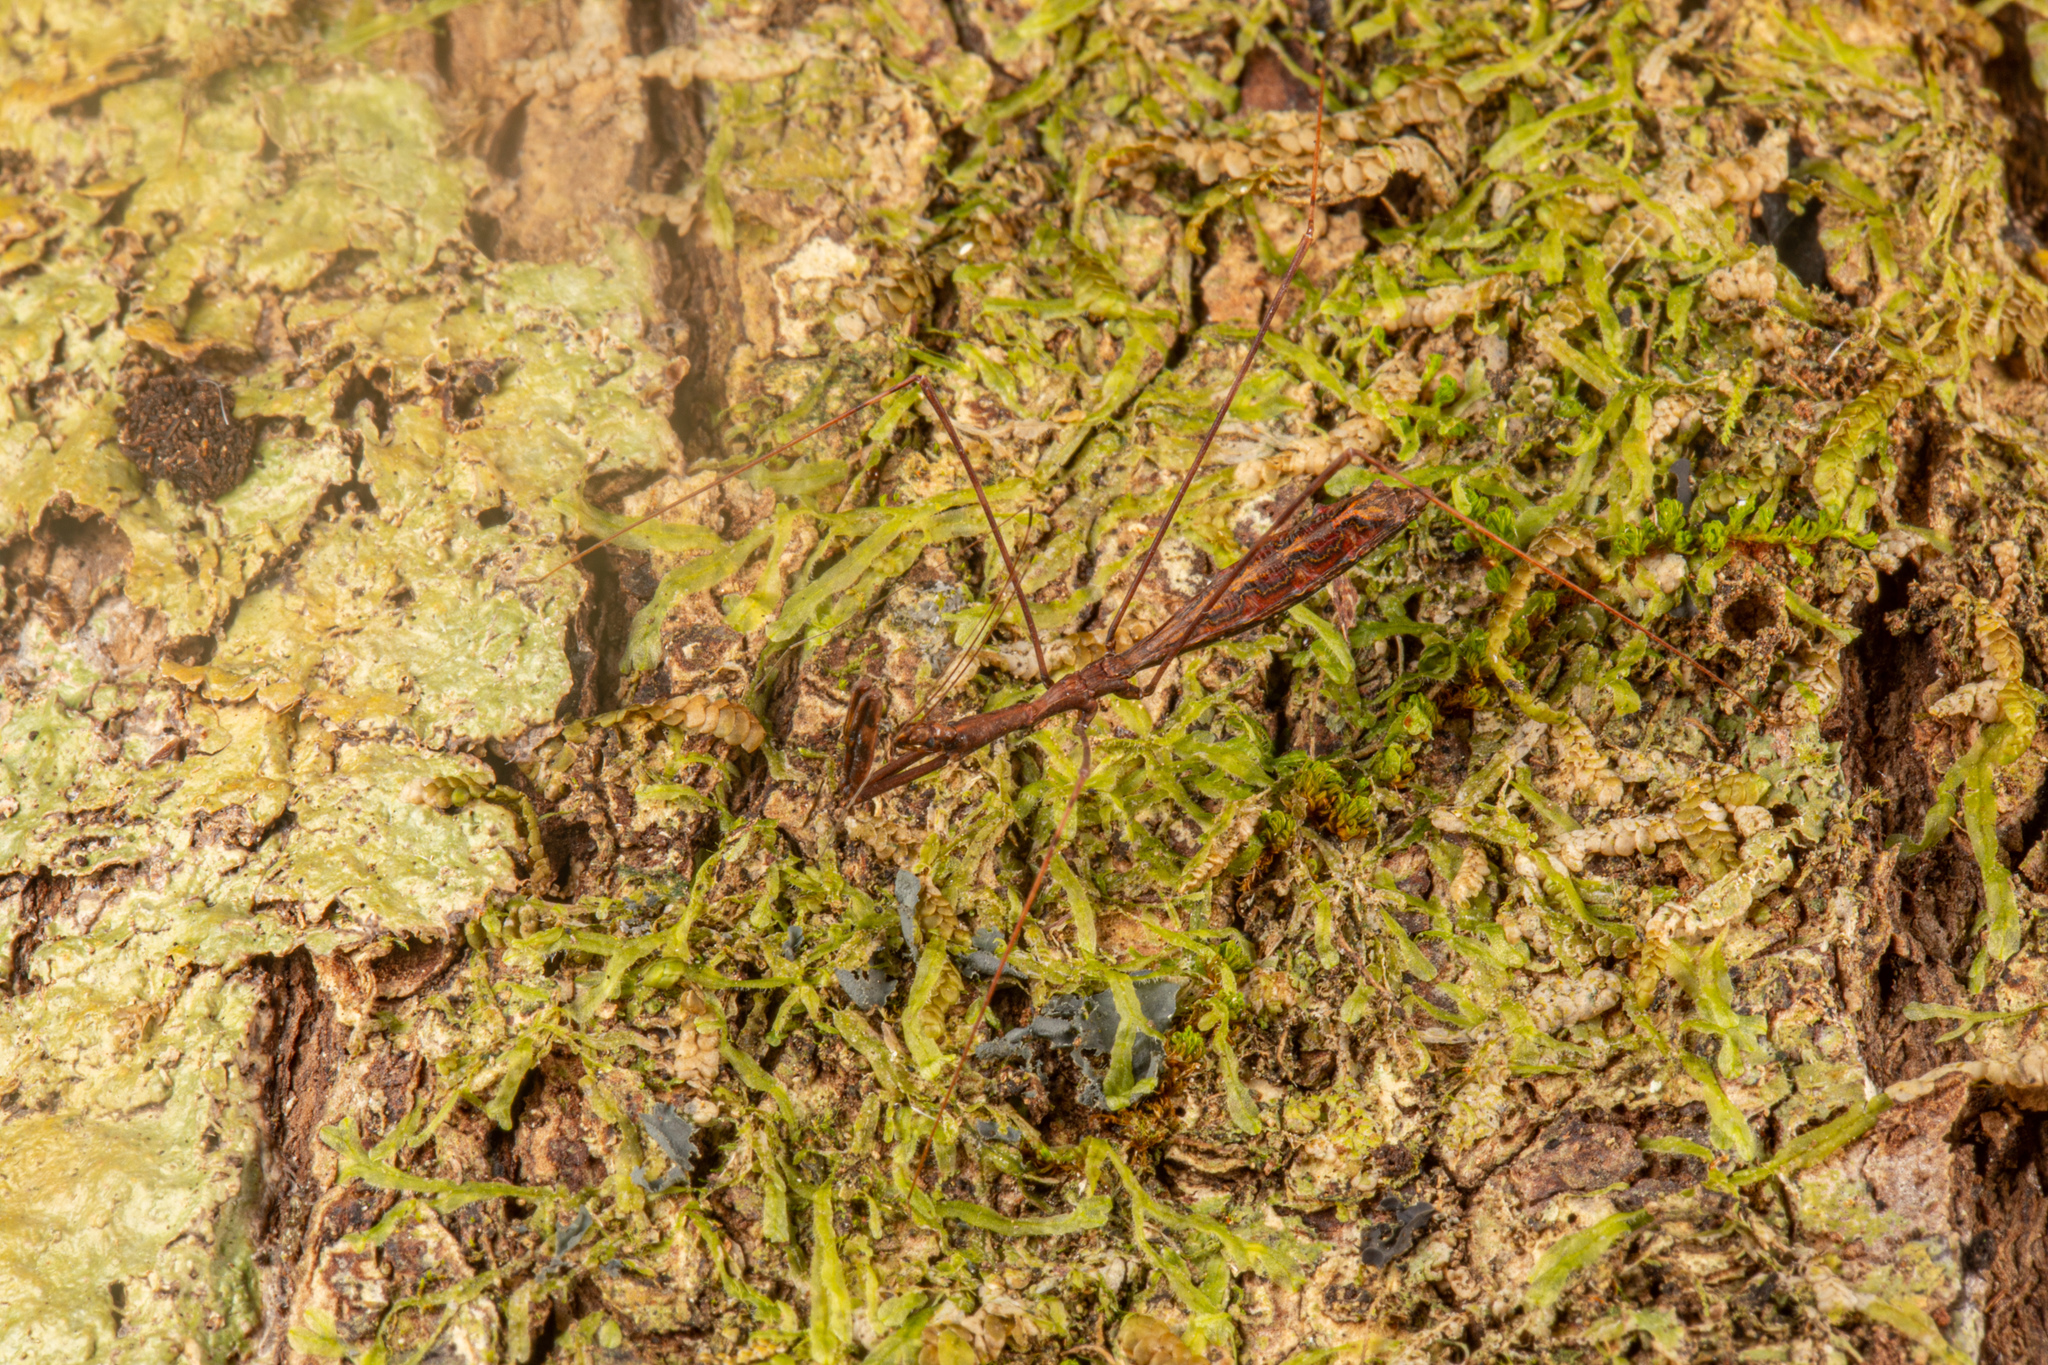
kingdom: Animalia
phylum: Arthropoda
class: Insecta
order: Hemiptera
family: Reduviidae
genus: Ploiaria
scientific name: Ploiaria antipodum
